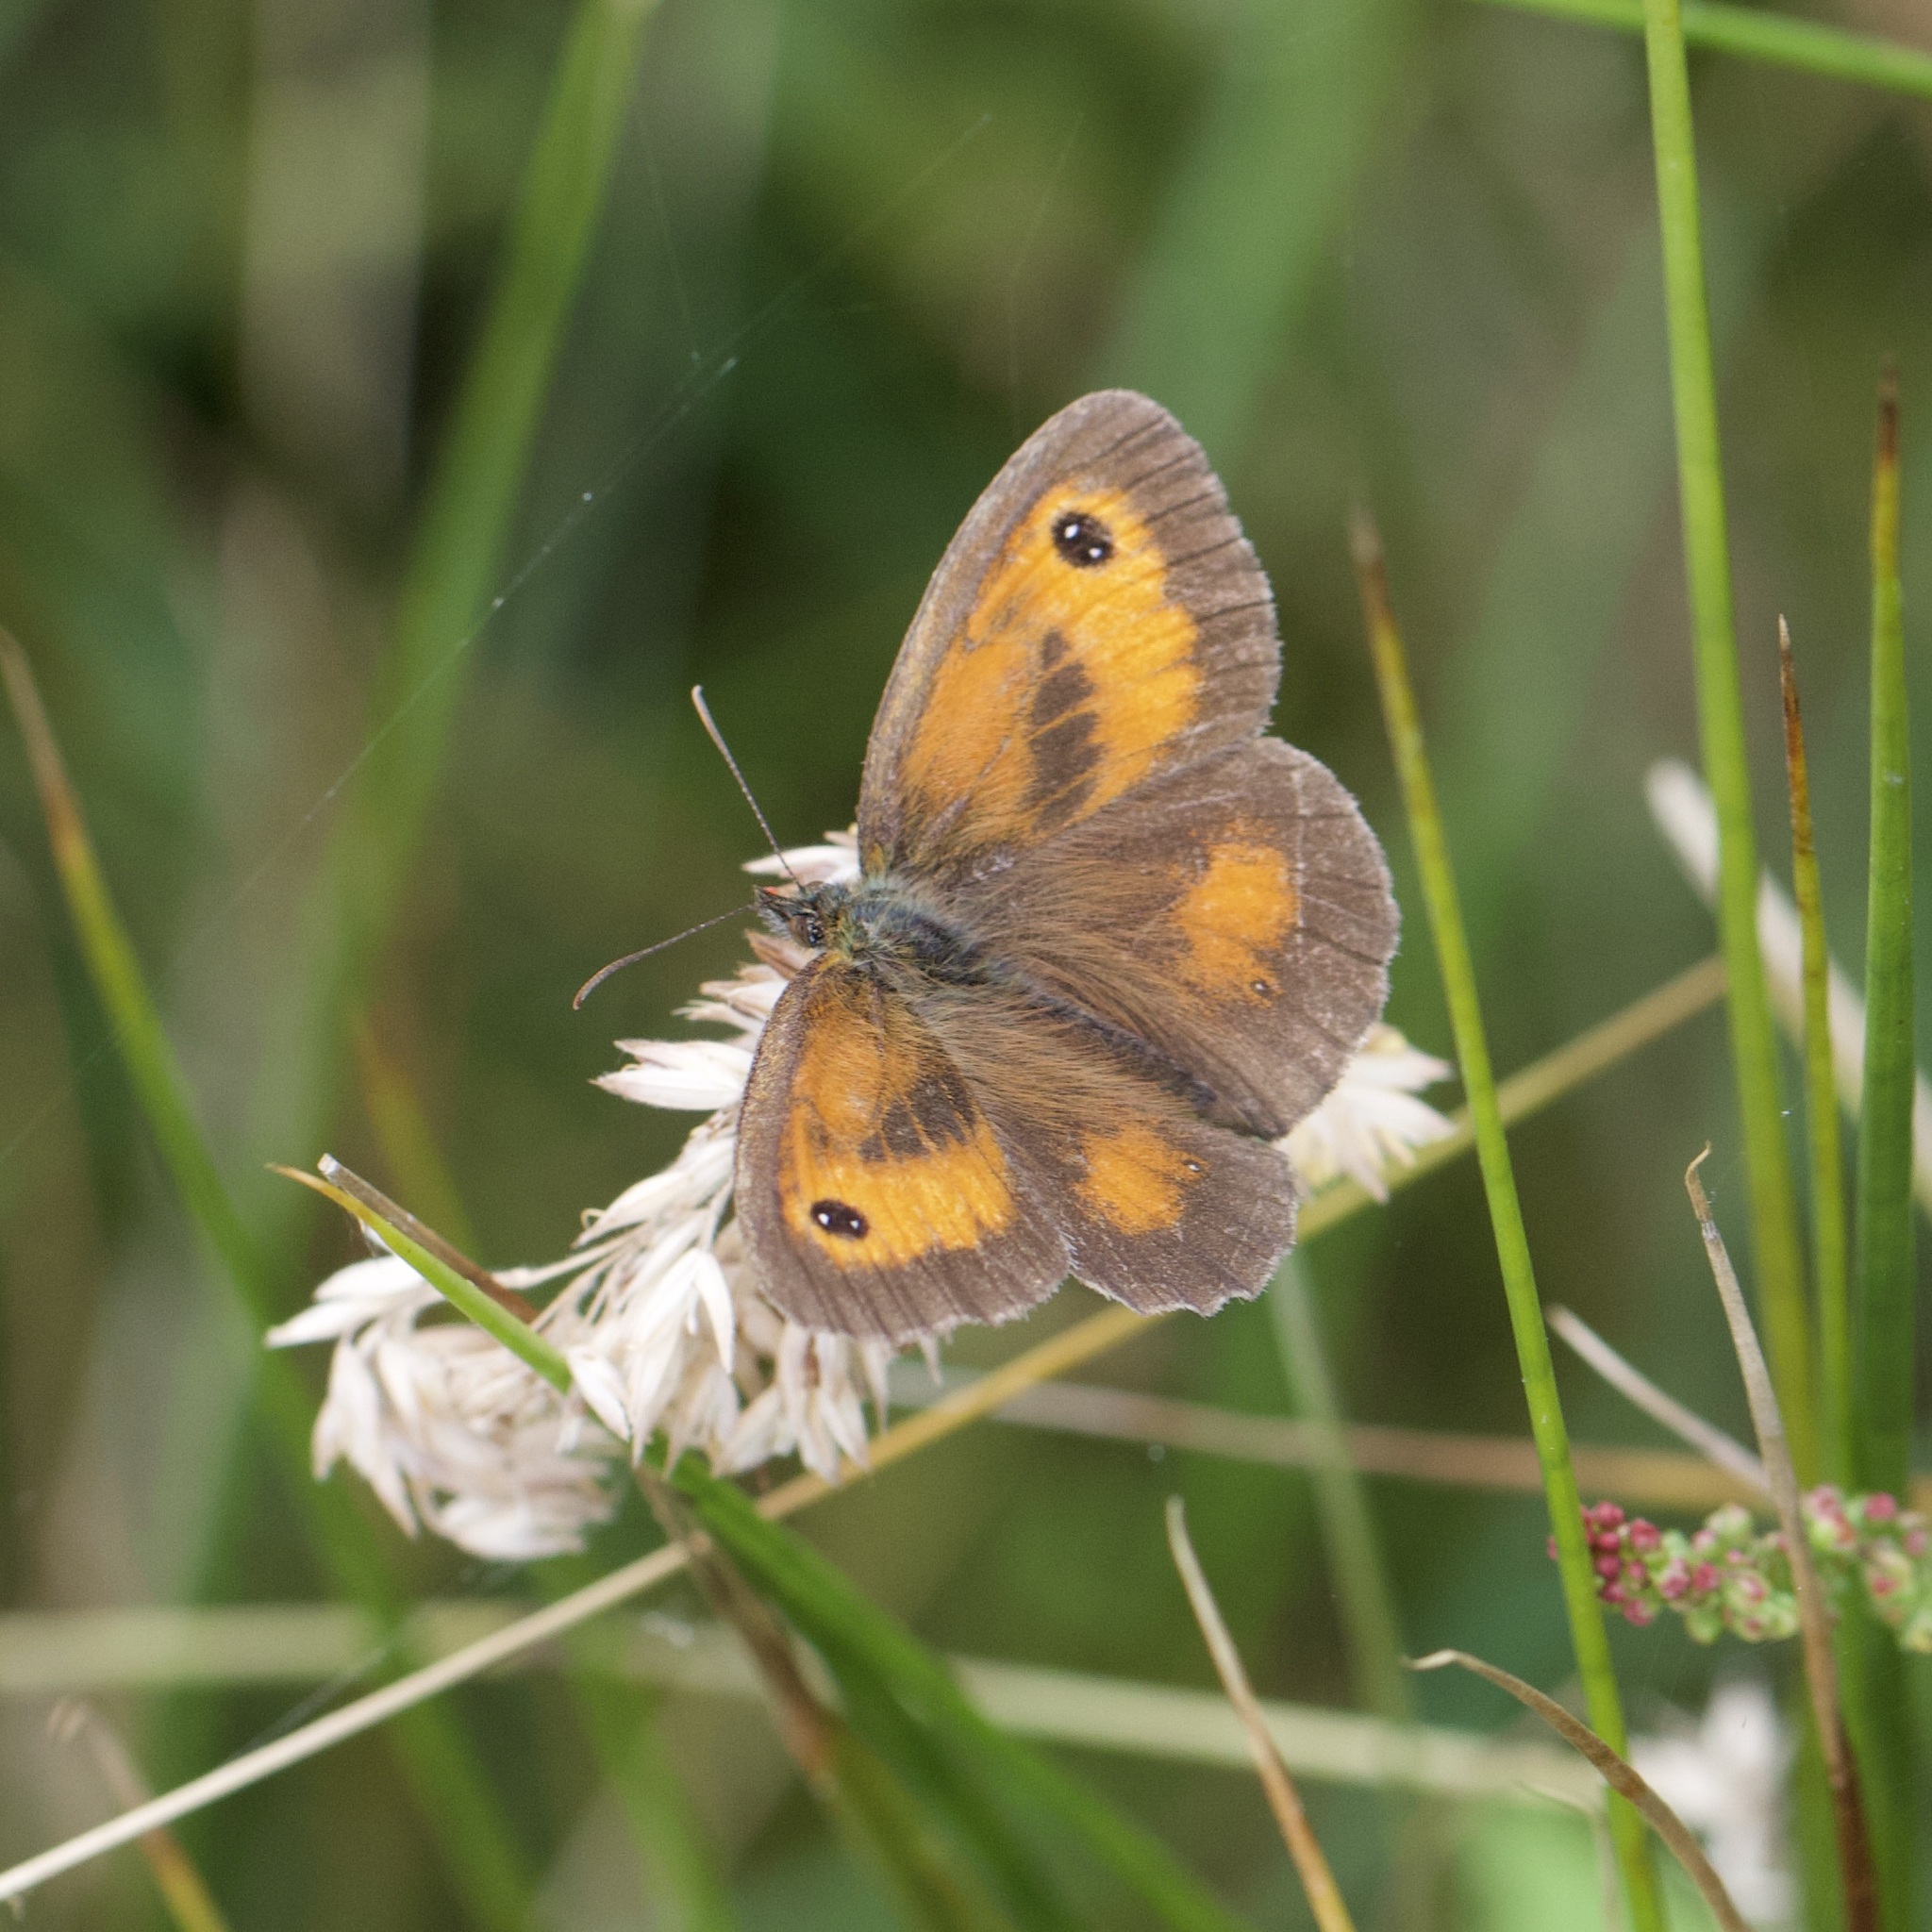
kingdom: Animalia
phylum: Arthropoda
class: Insecta
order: Lepidoptera
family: Nymphalidae
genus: Pyronia
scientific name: Pyronia tithonus
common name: Gatekeeper
